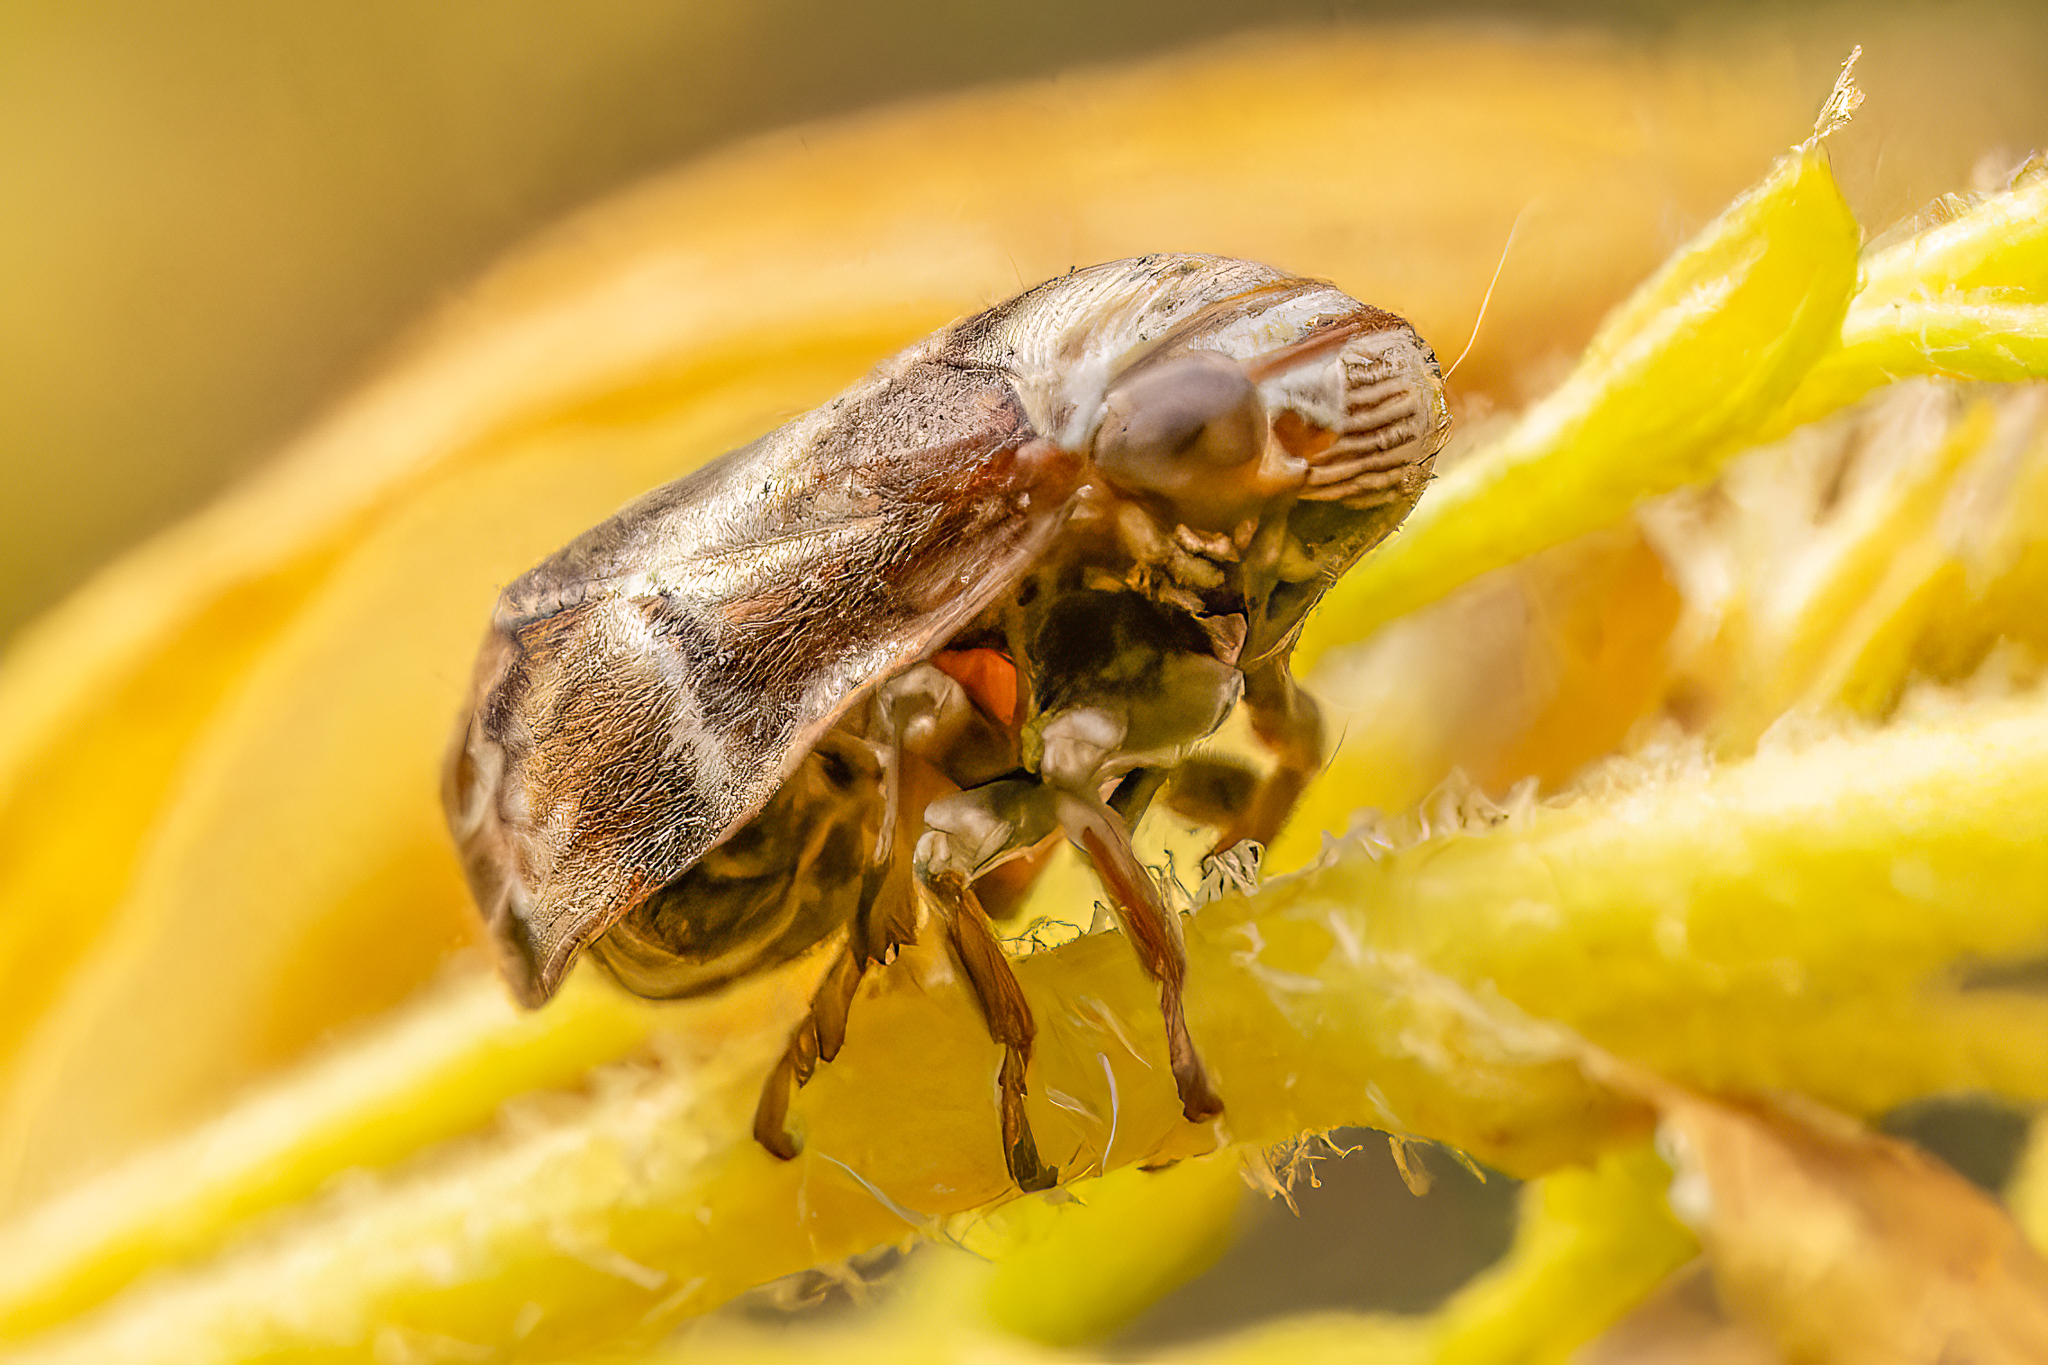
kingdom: Animalia
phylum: Arthropoda
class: Insecta
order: Hemiptera
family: Clastopteridae
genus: Clastoptera
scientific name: Clastoptera obtusa
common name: Alder spittlebug
